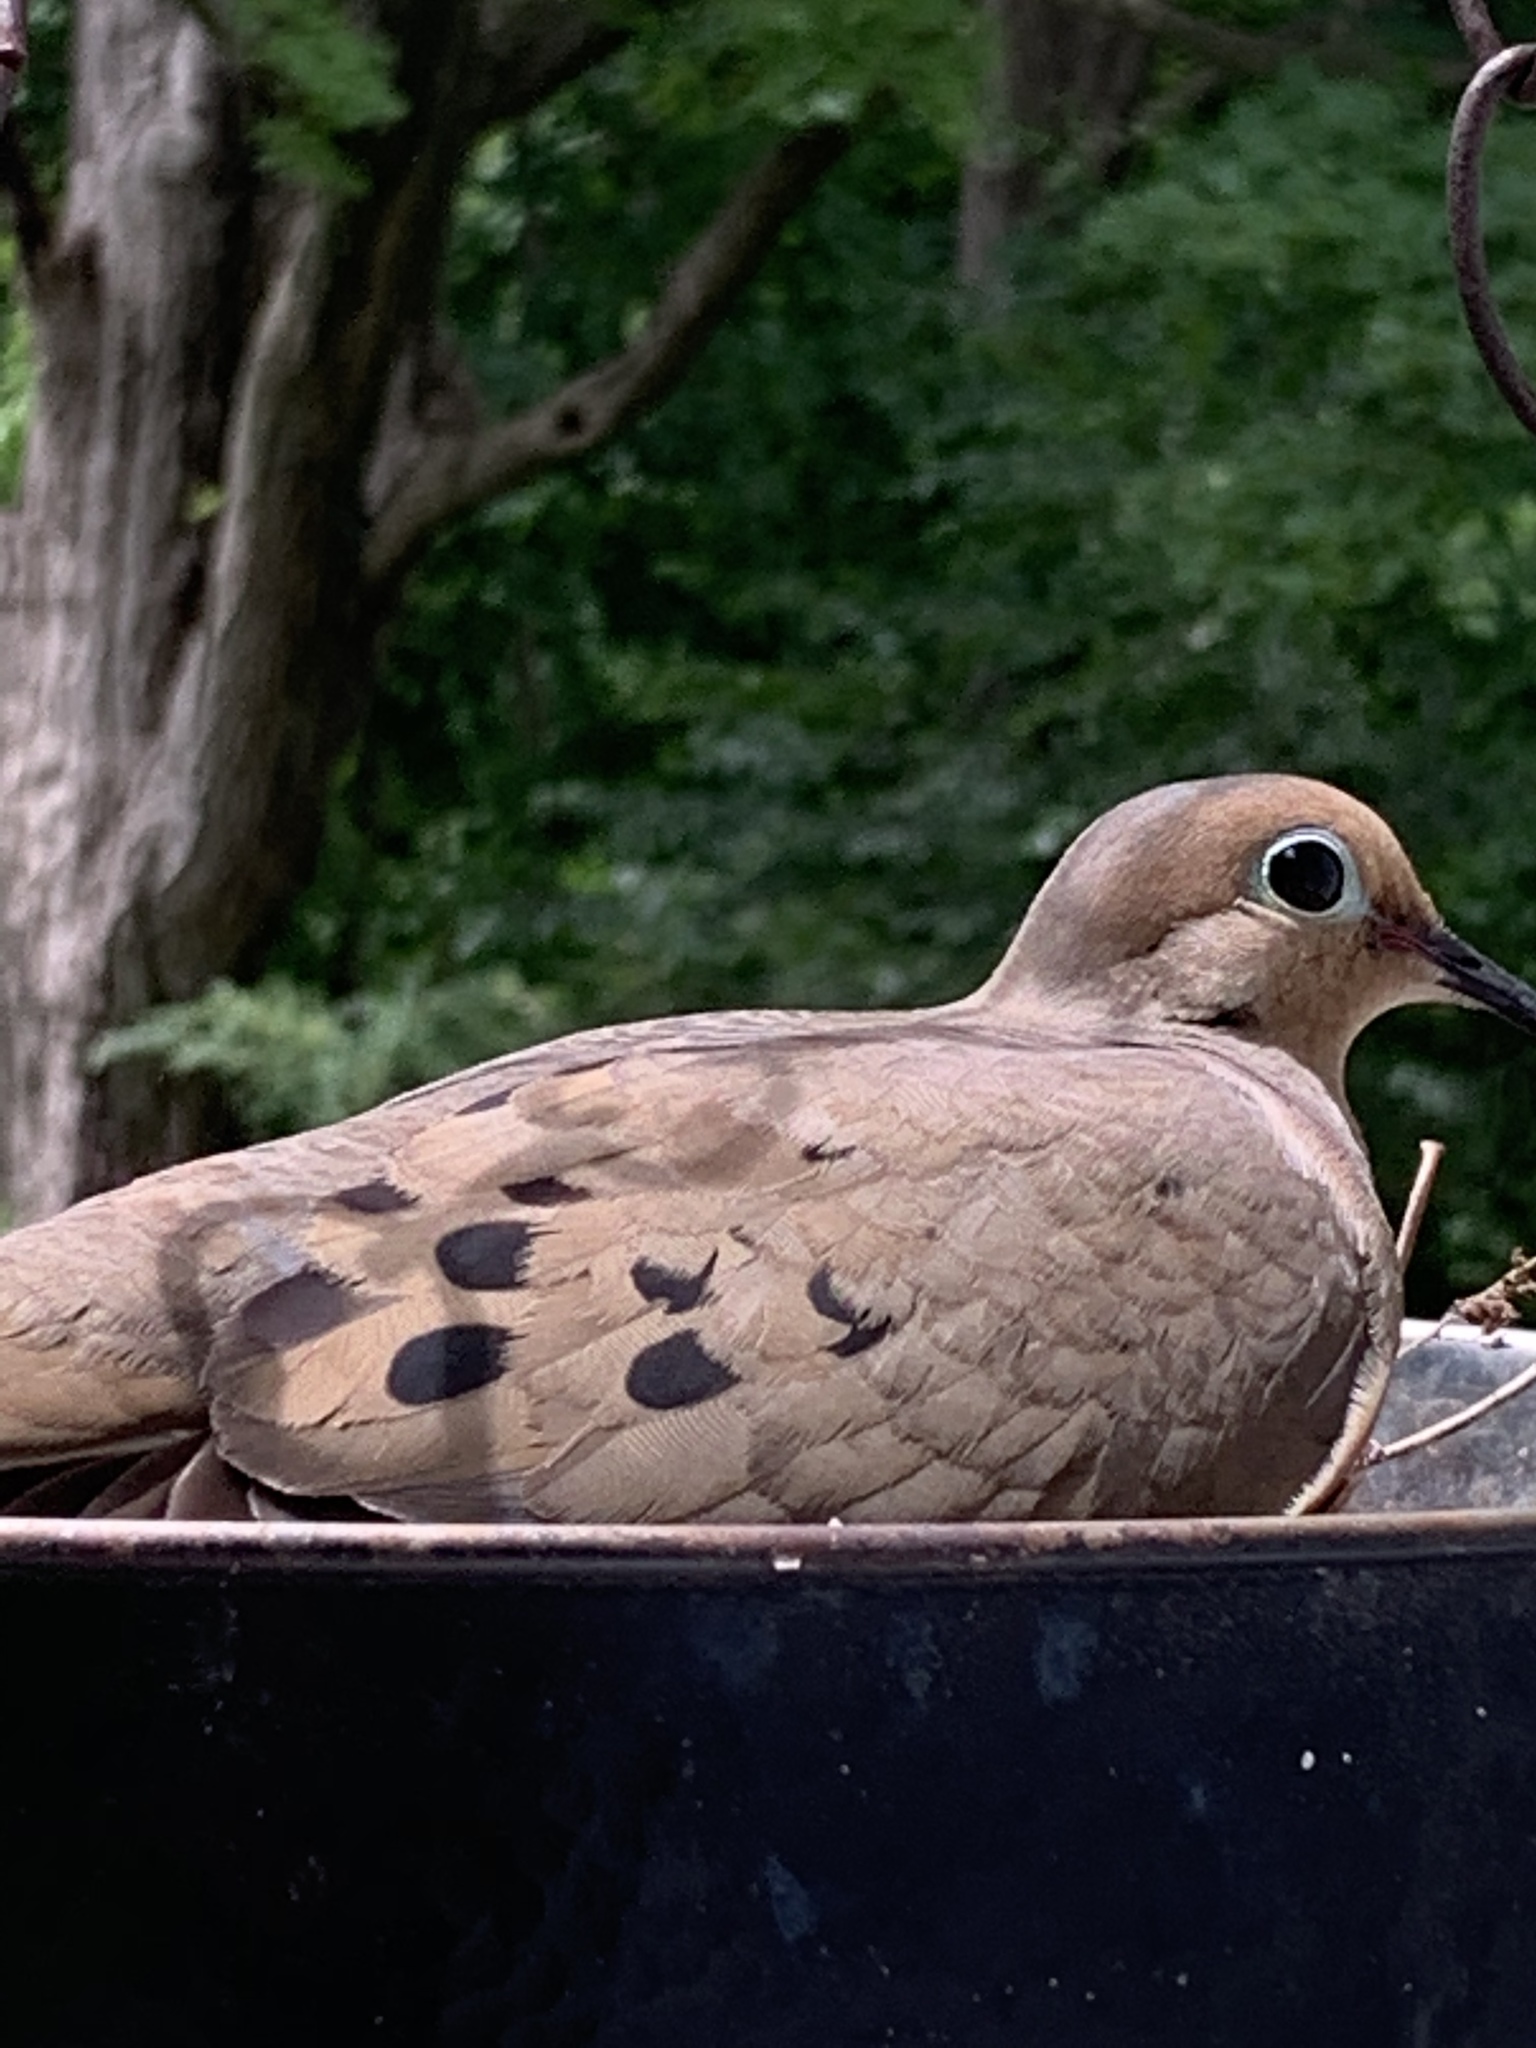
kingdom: Animalia
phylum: Chordata
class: Aves
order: Columbiformes
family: Columbidae
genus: Zenaida
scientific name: Zenaida macroura
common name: Mourning dove
